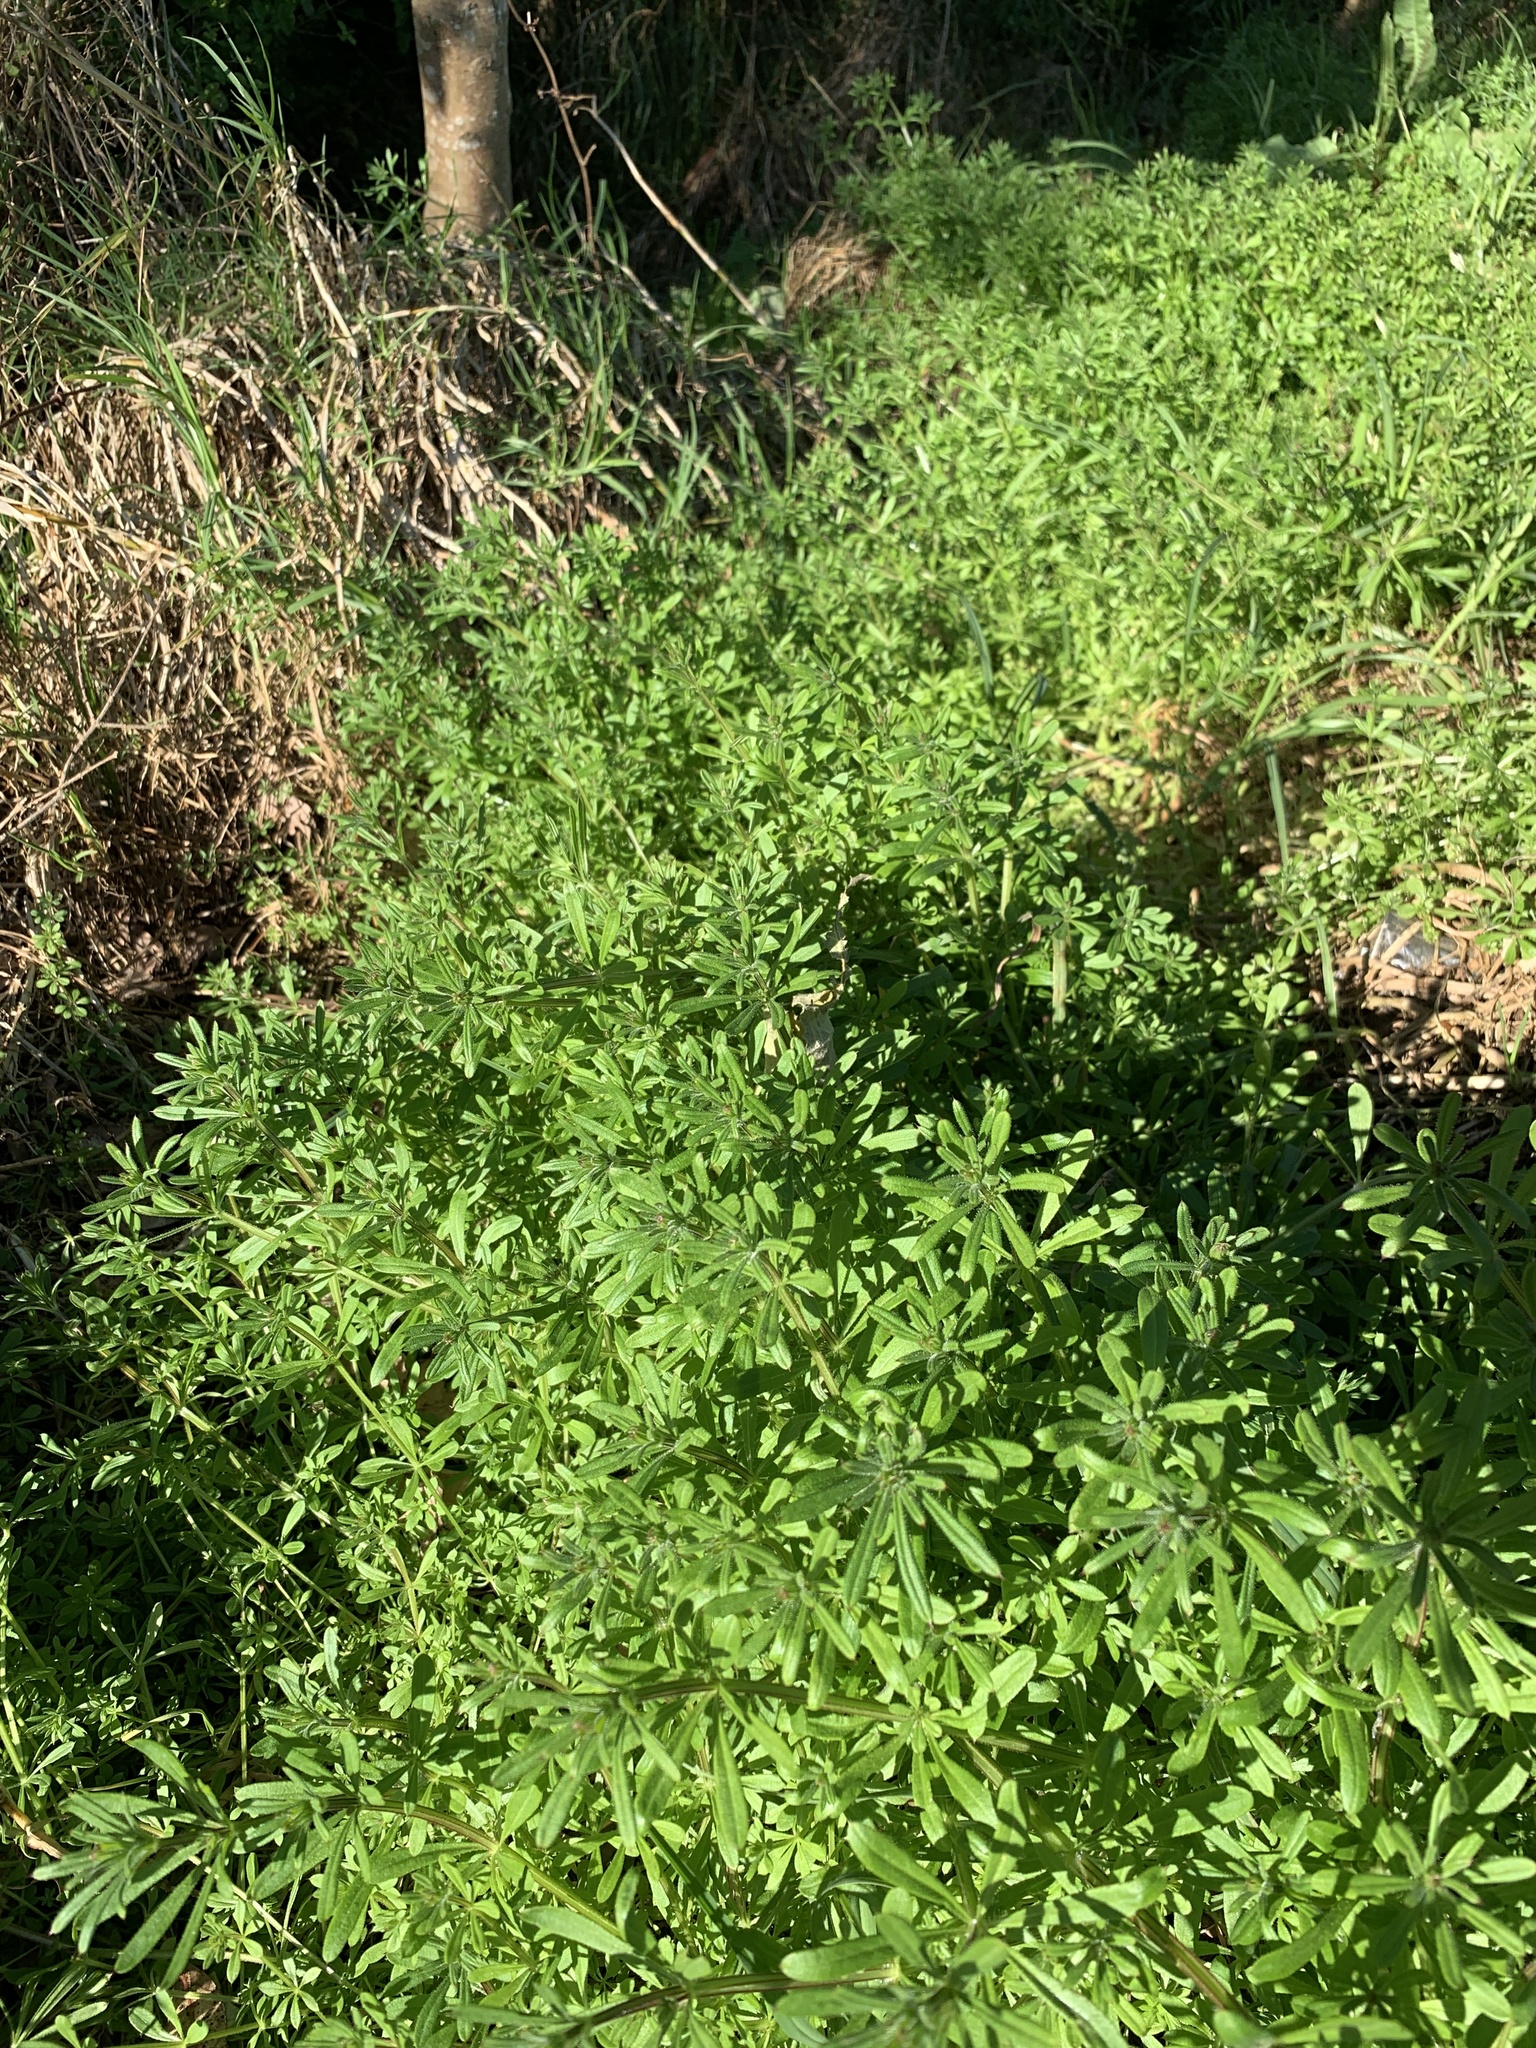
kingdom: Plantae
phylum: Tracheophyta
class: Magnoliopsida
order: Gentianales
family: Rubiaceae
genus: Galium
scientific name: Galium aparine
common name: Cleavers
